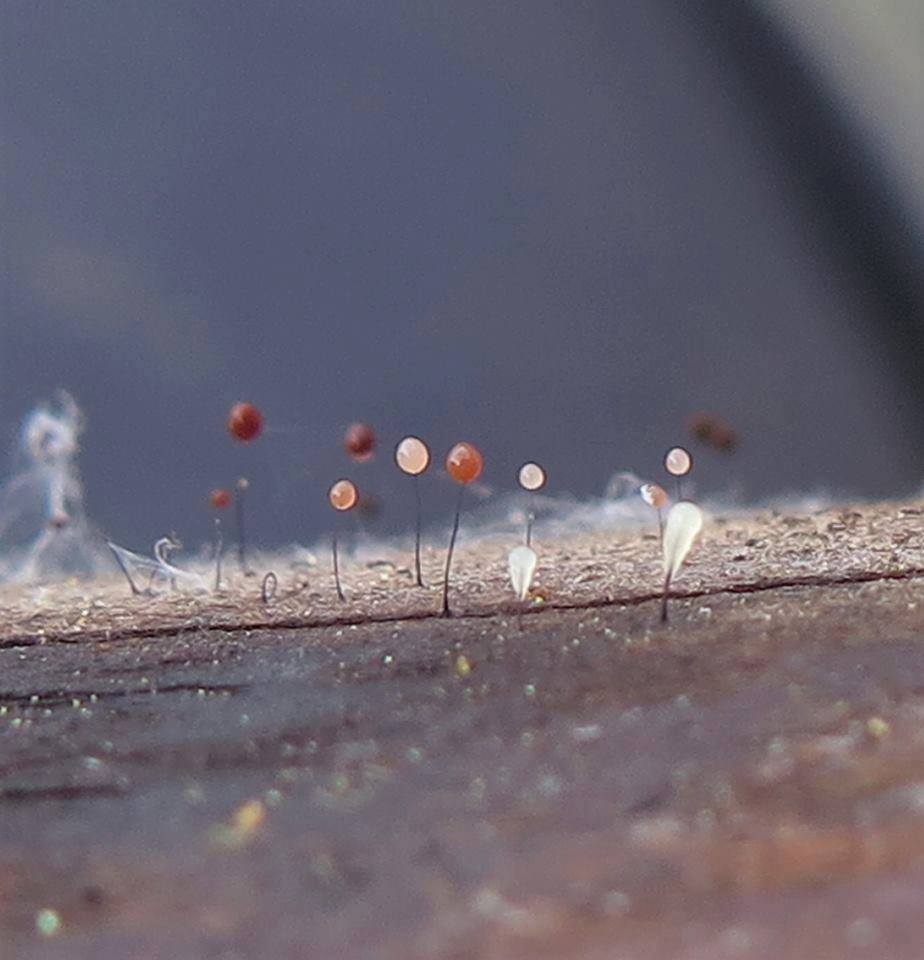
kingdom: Protozoa
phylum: Mycetozoa
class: Myxomycetes
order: Stemonitidales
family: Stemonitidaceae
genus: Comatricha
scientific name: Comatricha nigra
